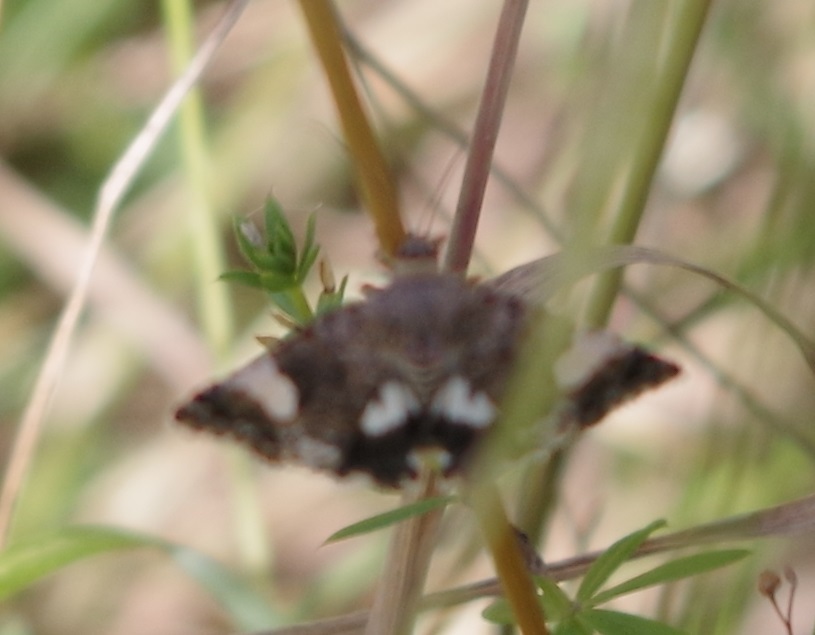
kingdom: Animalia
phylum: Arthropoda
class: Insecta
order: Lepidoptera
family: Erebidae
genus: Tyta
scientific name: Tyta luctuosa
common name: Four-spotted
